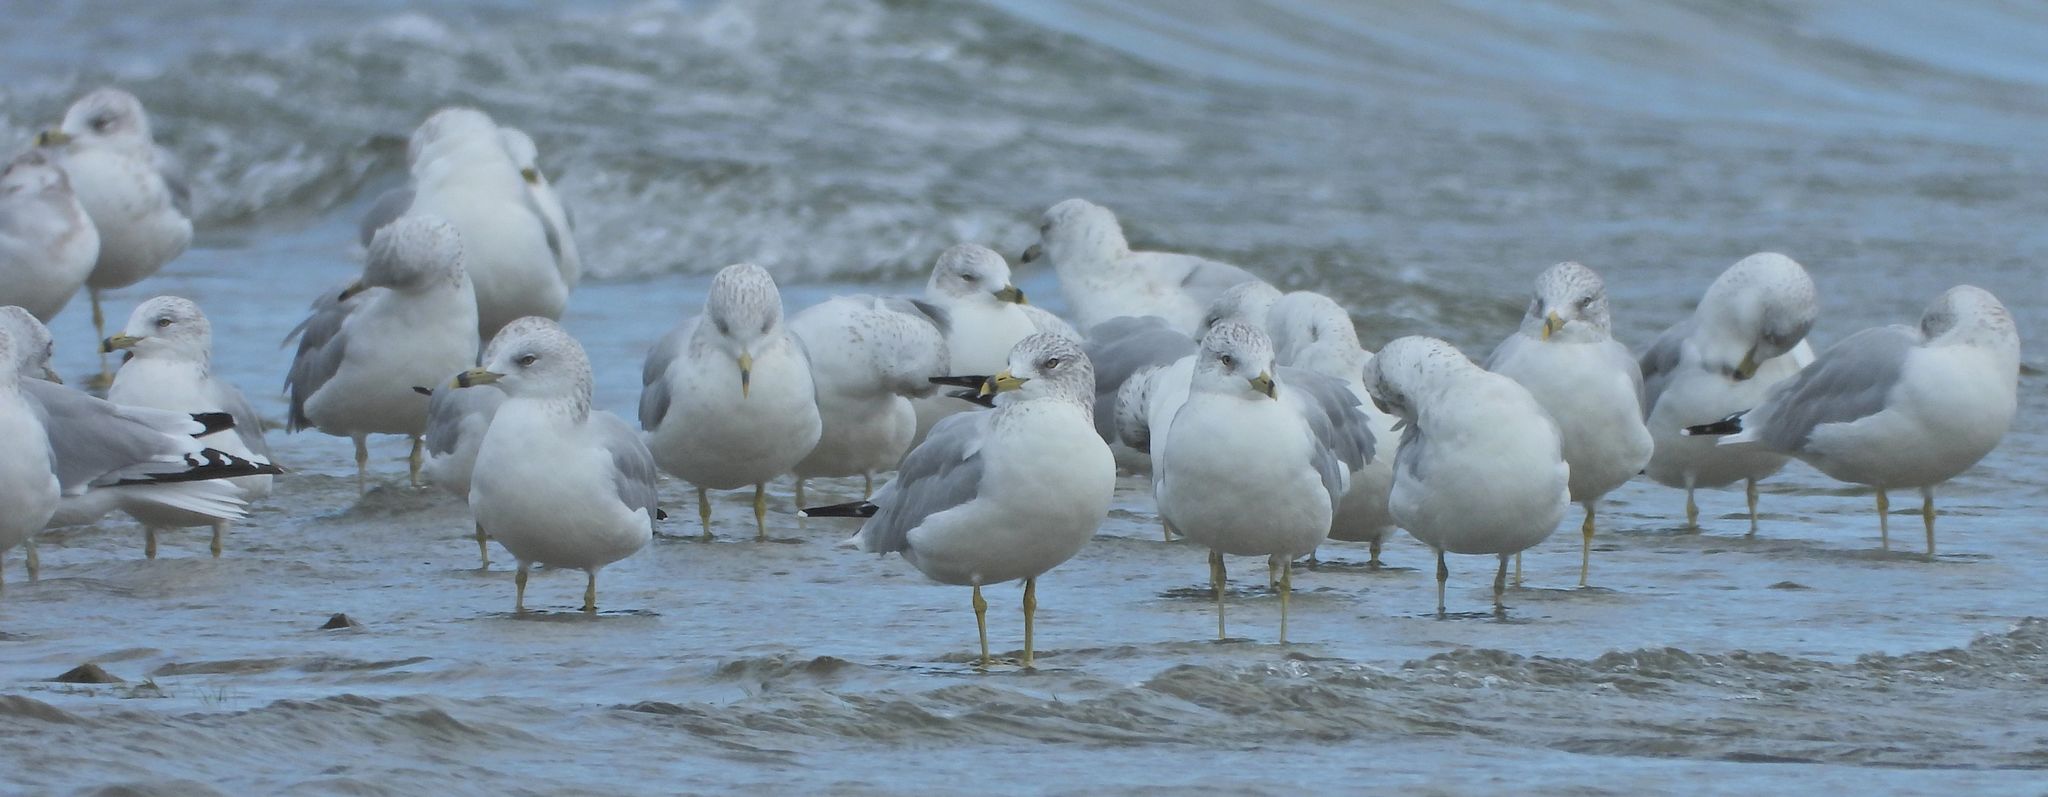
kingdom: Animalia
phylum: Chordata
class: Aves
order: Charadriiformes
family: Laridae
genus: Larus
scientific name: Larus delawarensis
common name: Ring-billed gull
